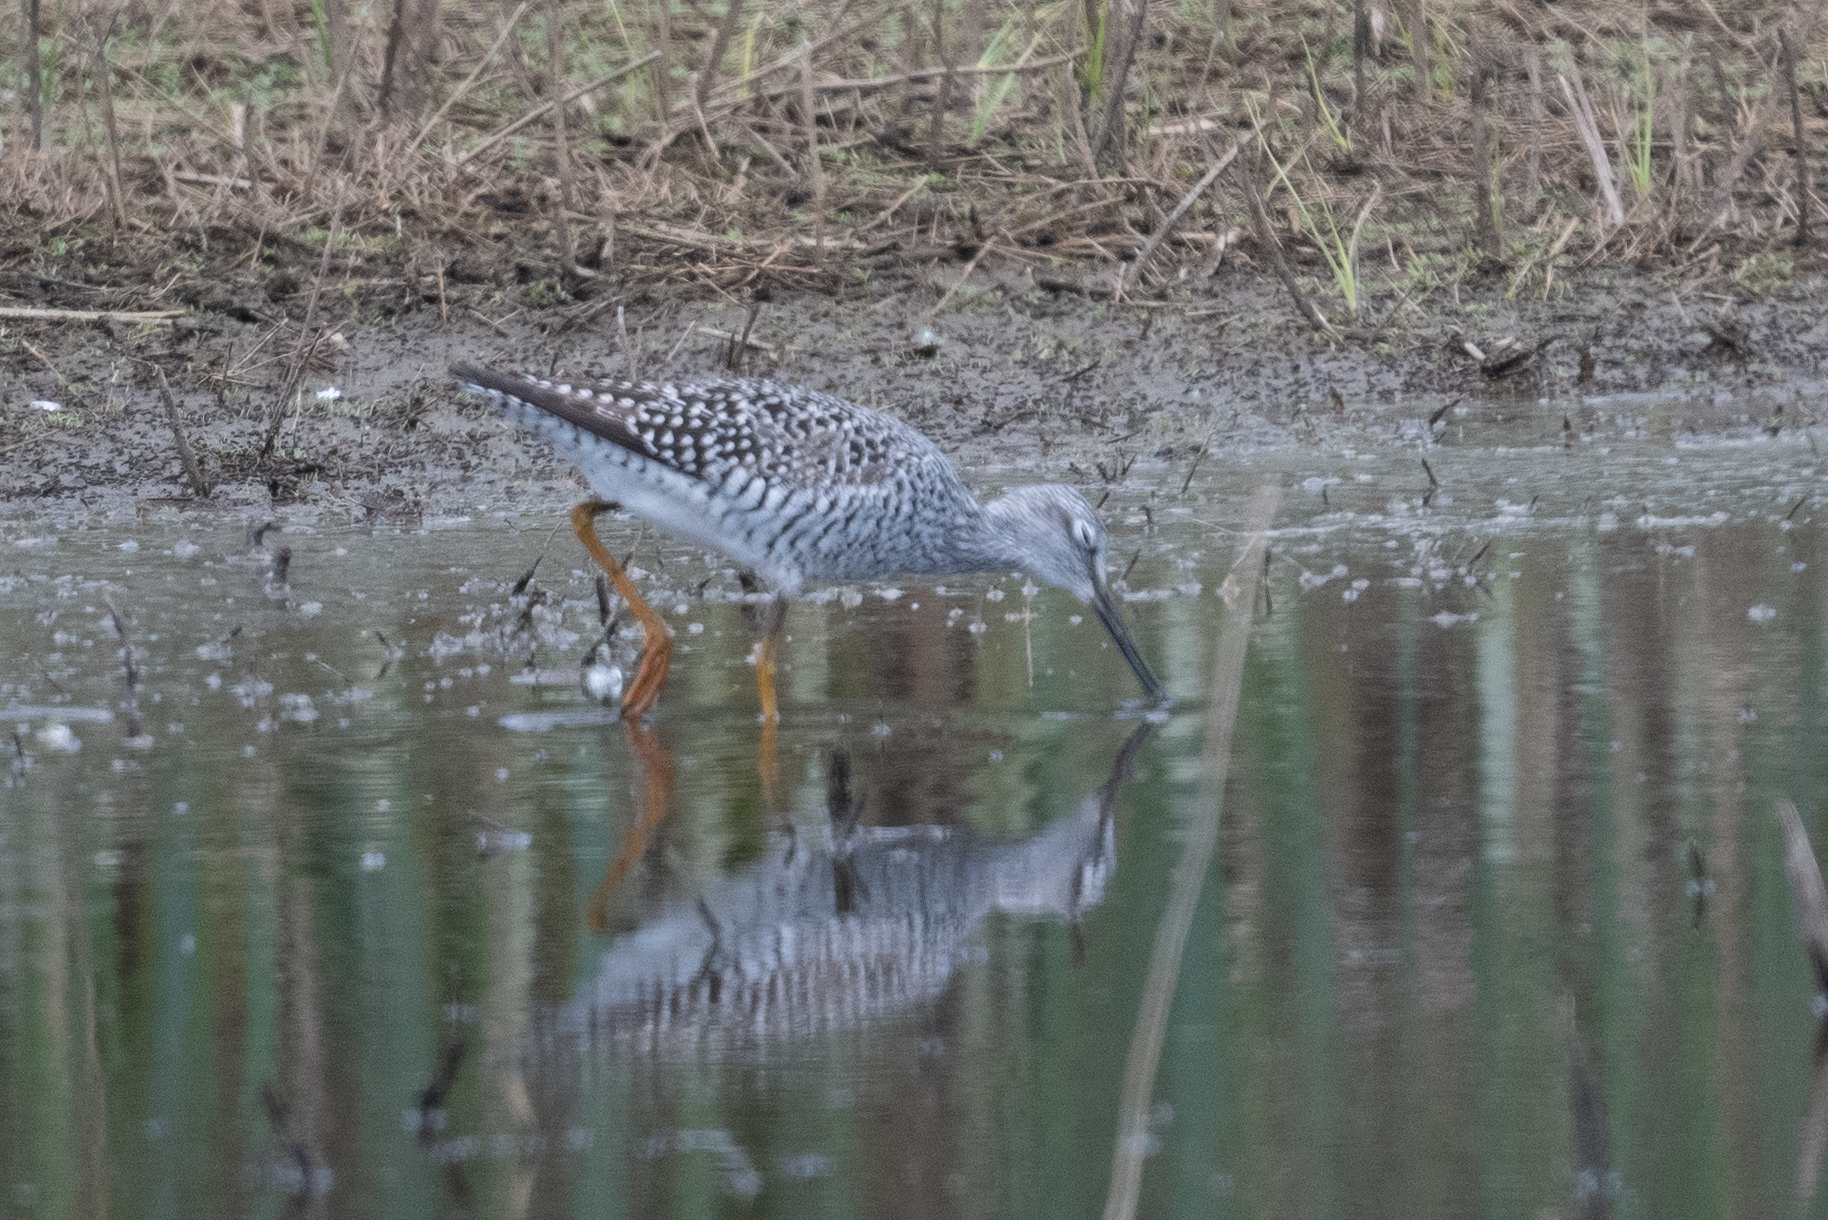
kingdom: Animalia
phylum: Chordata
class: Aves
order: Charadriiformes
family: Scolopacidae
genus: Tringa
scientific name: Tringa melanoleuca
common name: Greater yellowlegs
